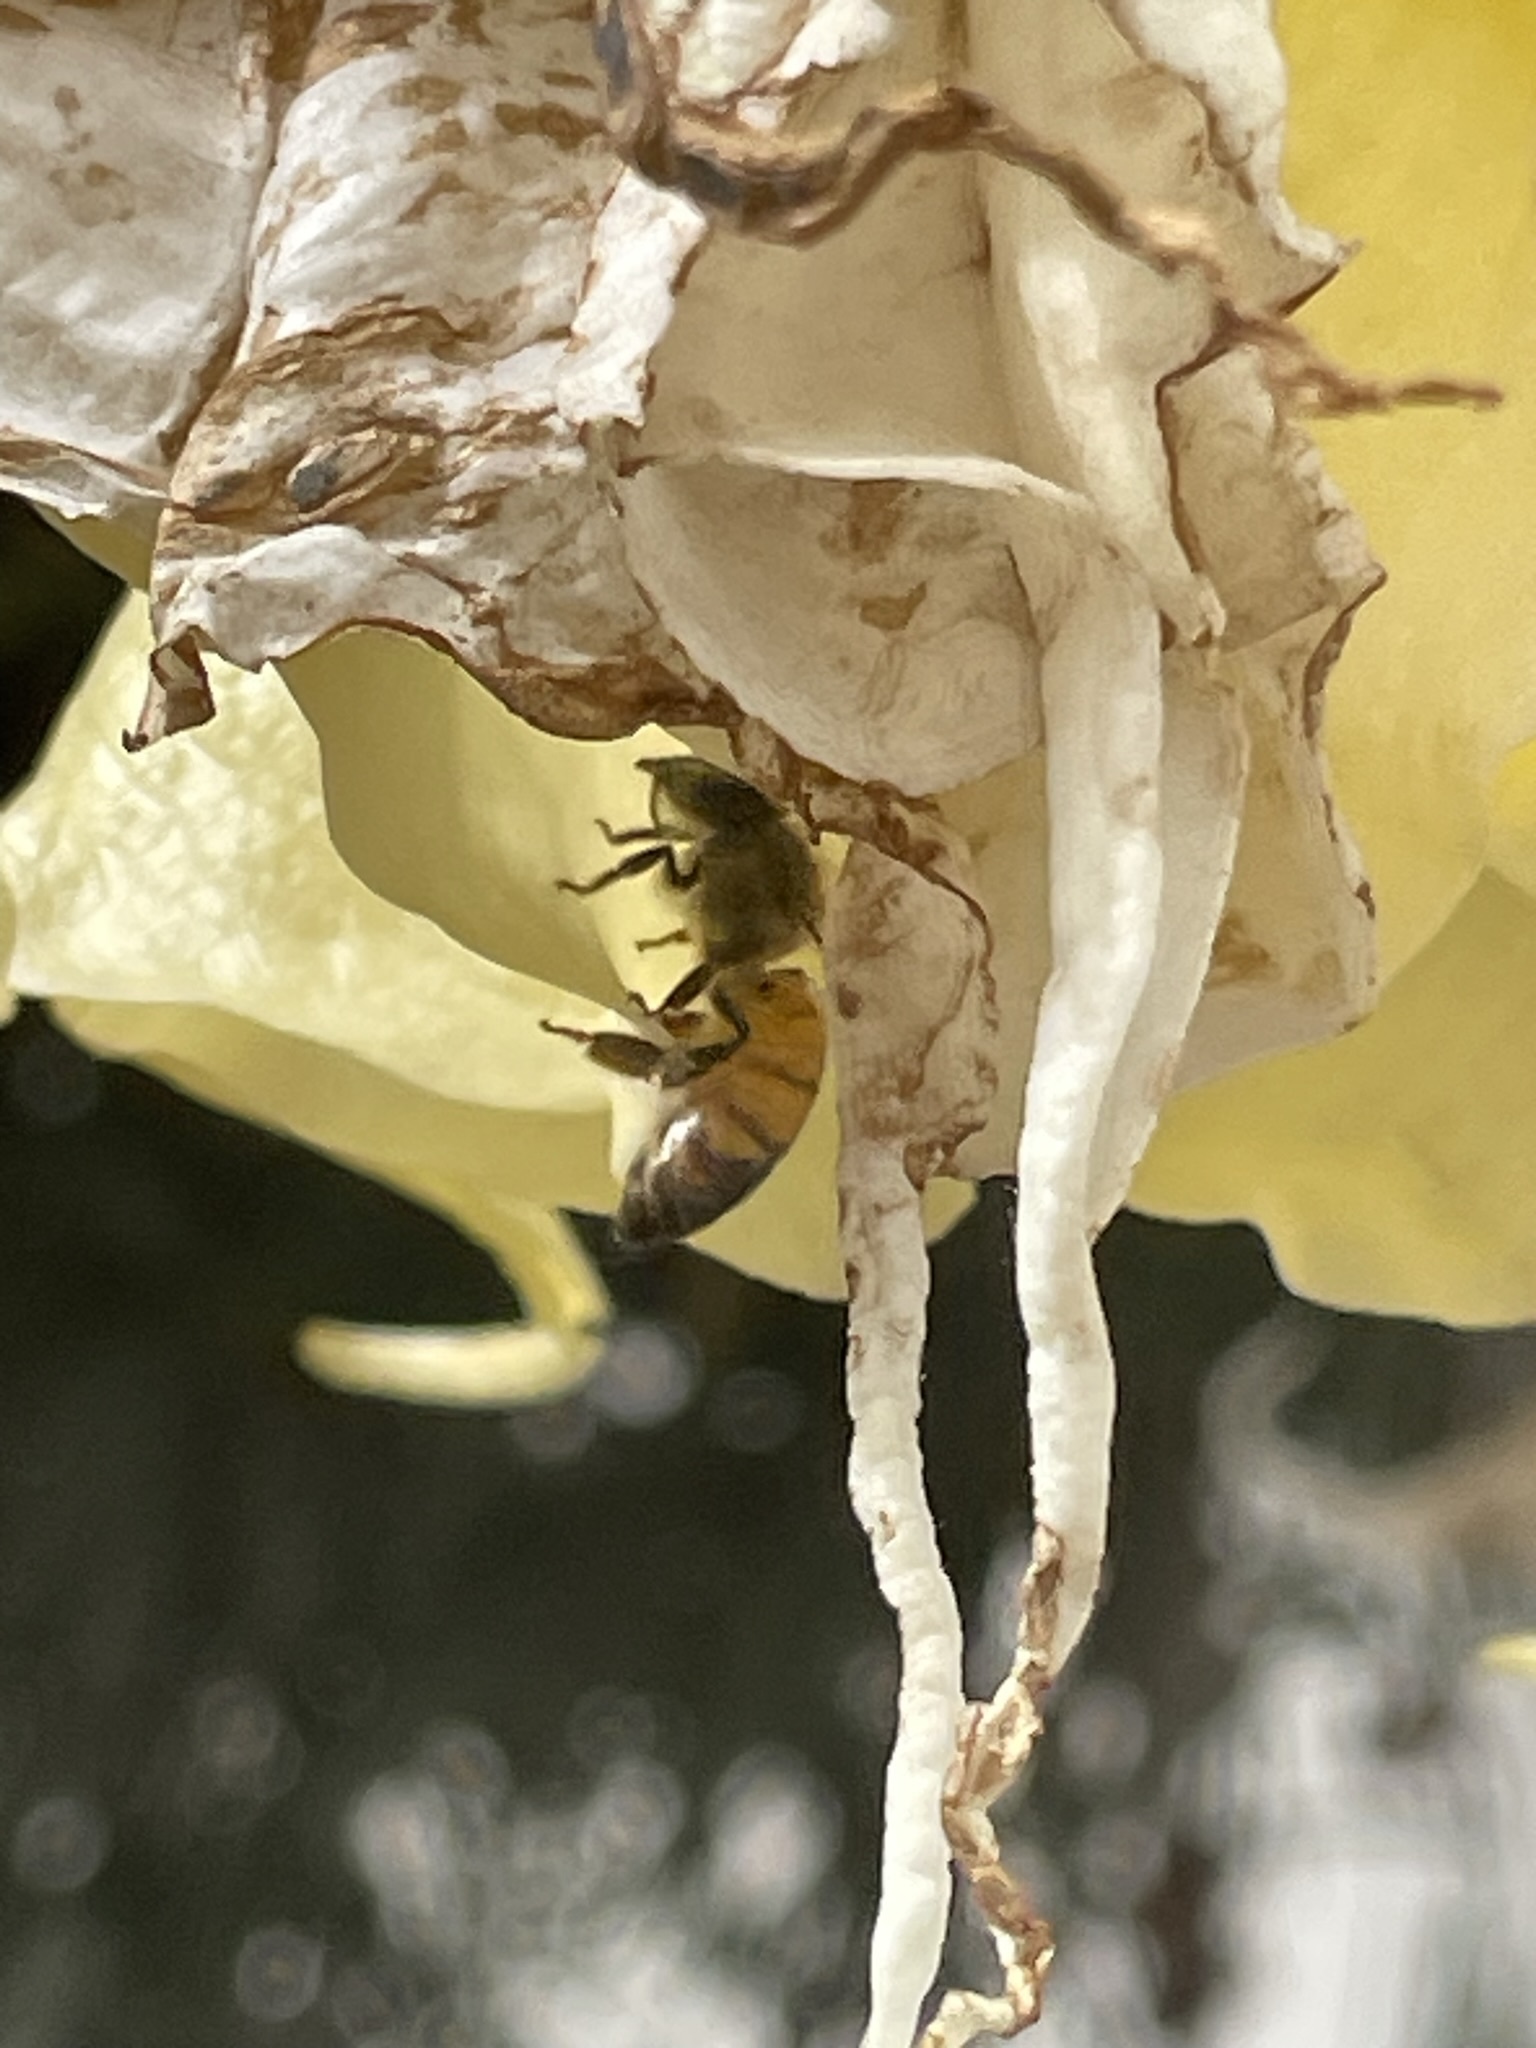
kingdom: Animalia
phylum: Arthropoda
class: Insecta
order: Hymenoptera
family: Apidae
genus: Apis
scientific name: Apis mellifera
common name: Honey bee
